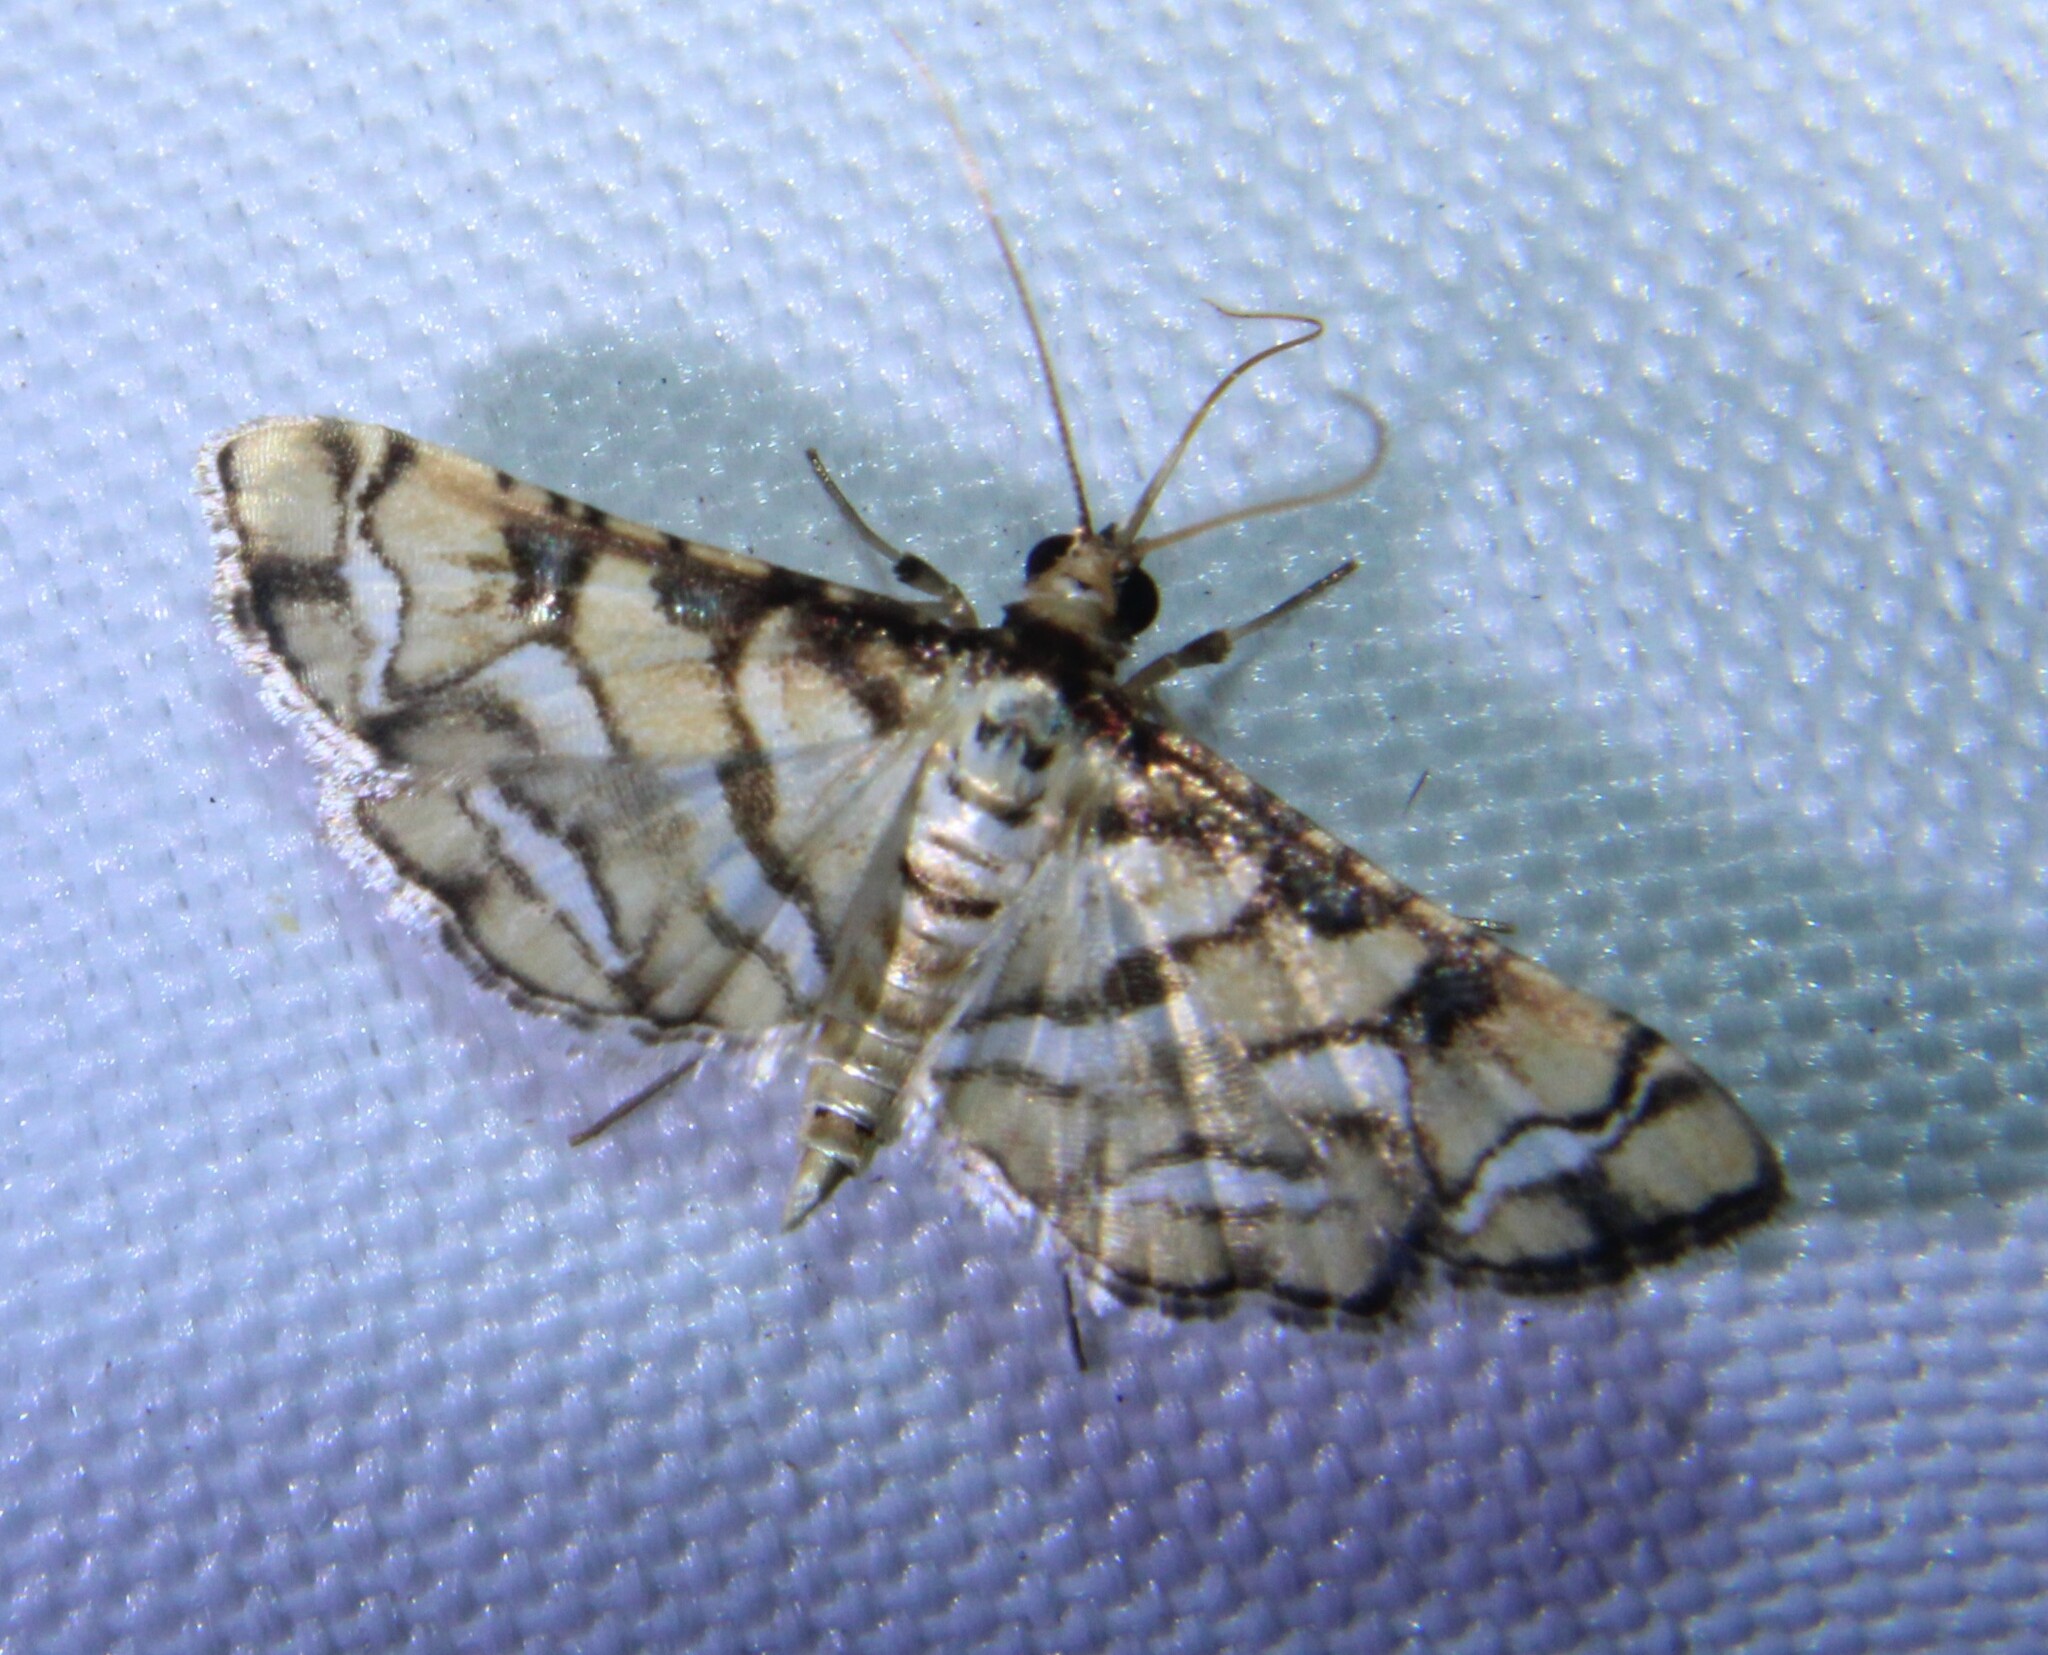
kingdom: Animalia
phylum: Arthropoda
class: Insecta
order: Lepidoptera
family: Crambidae
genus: Hileithia
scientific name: Hileithia magualis
